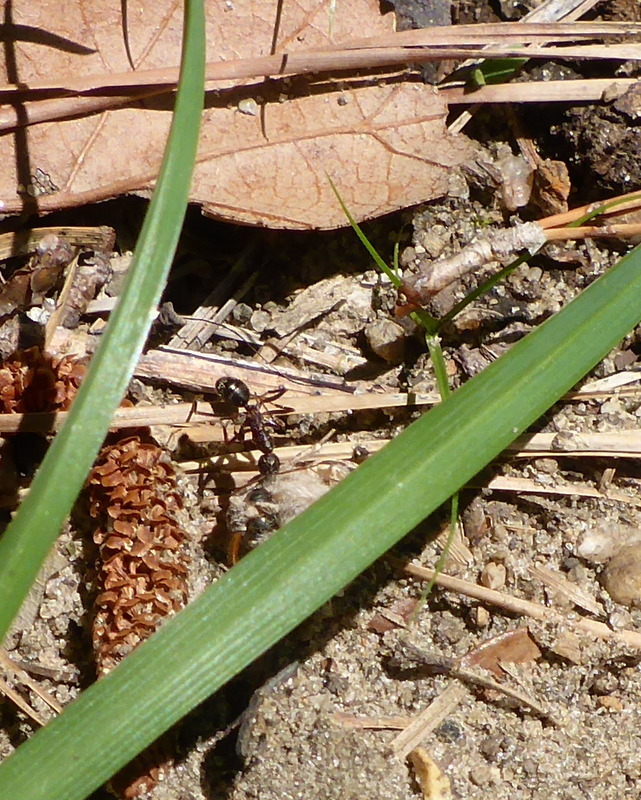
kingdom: Animalia
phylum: Arthropoda
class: Insecta
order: Hymenoptera
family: Formicidae
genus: Formica
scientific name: Formica archboldi
